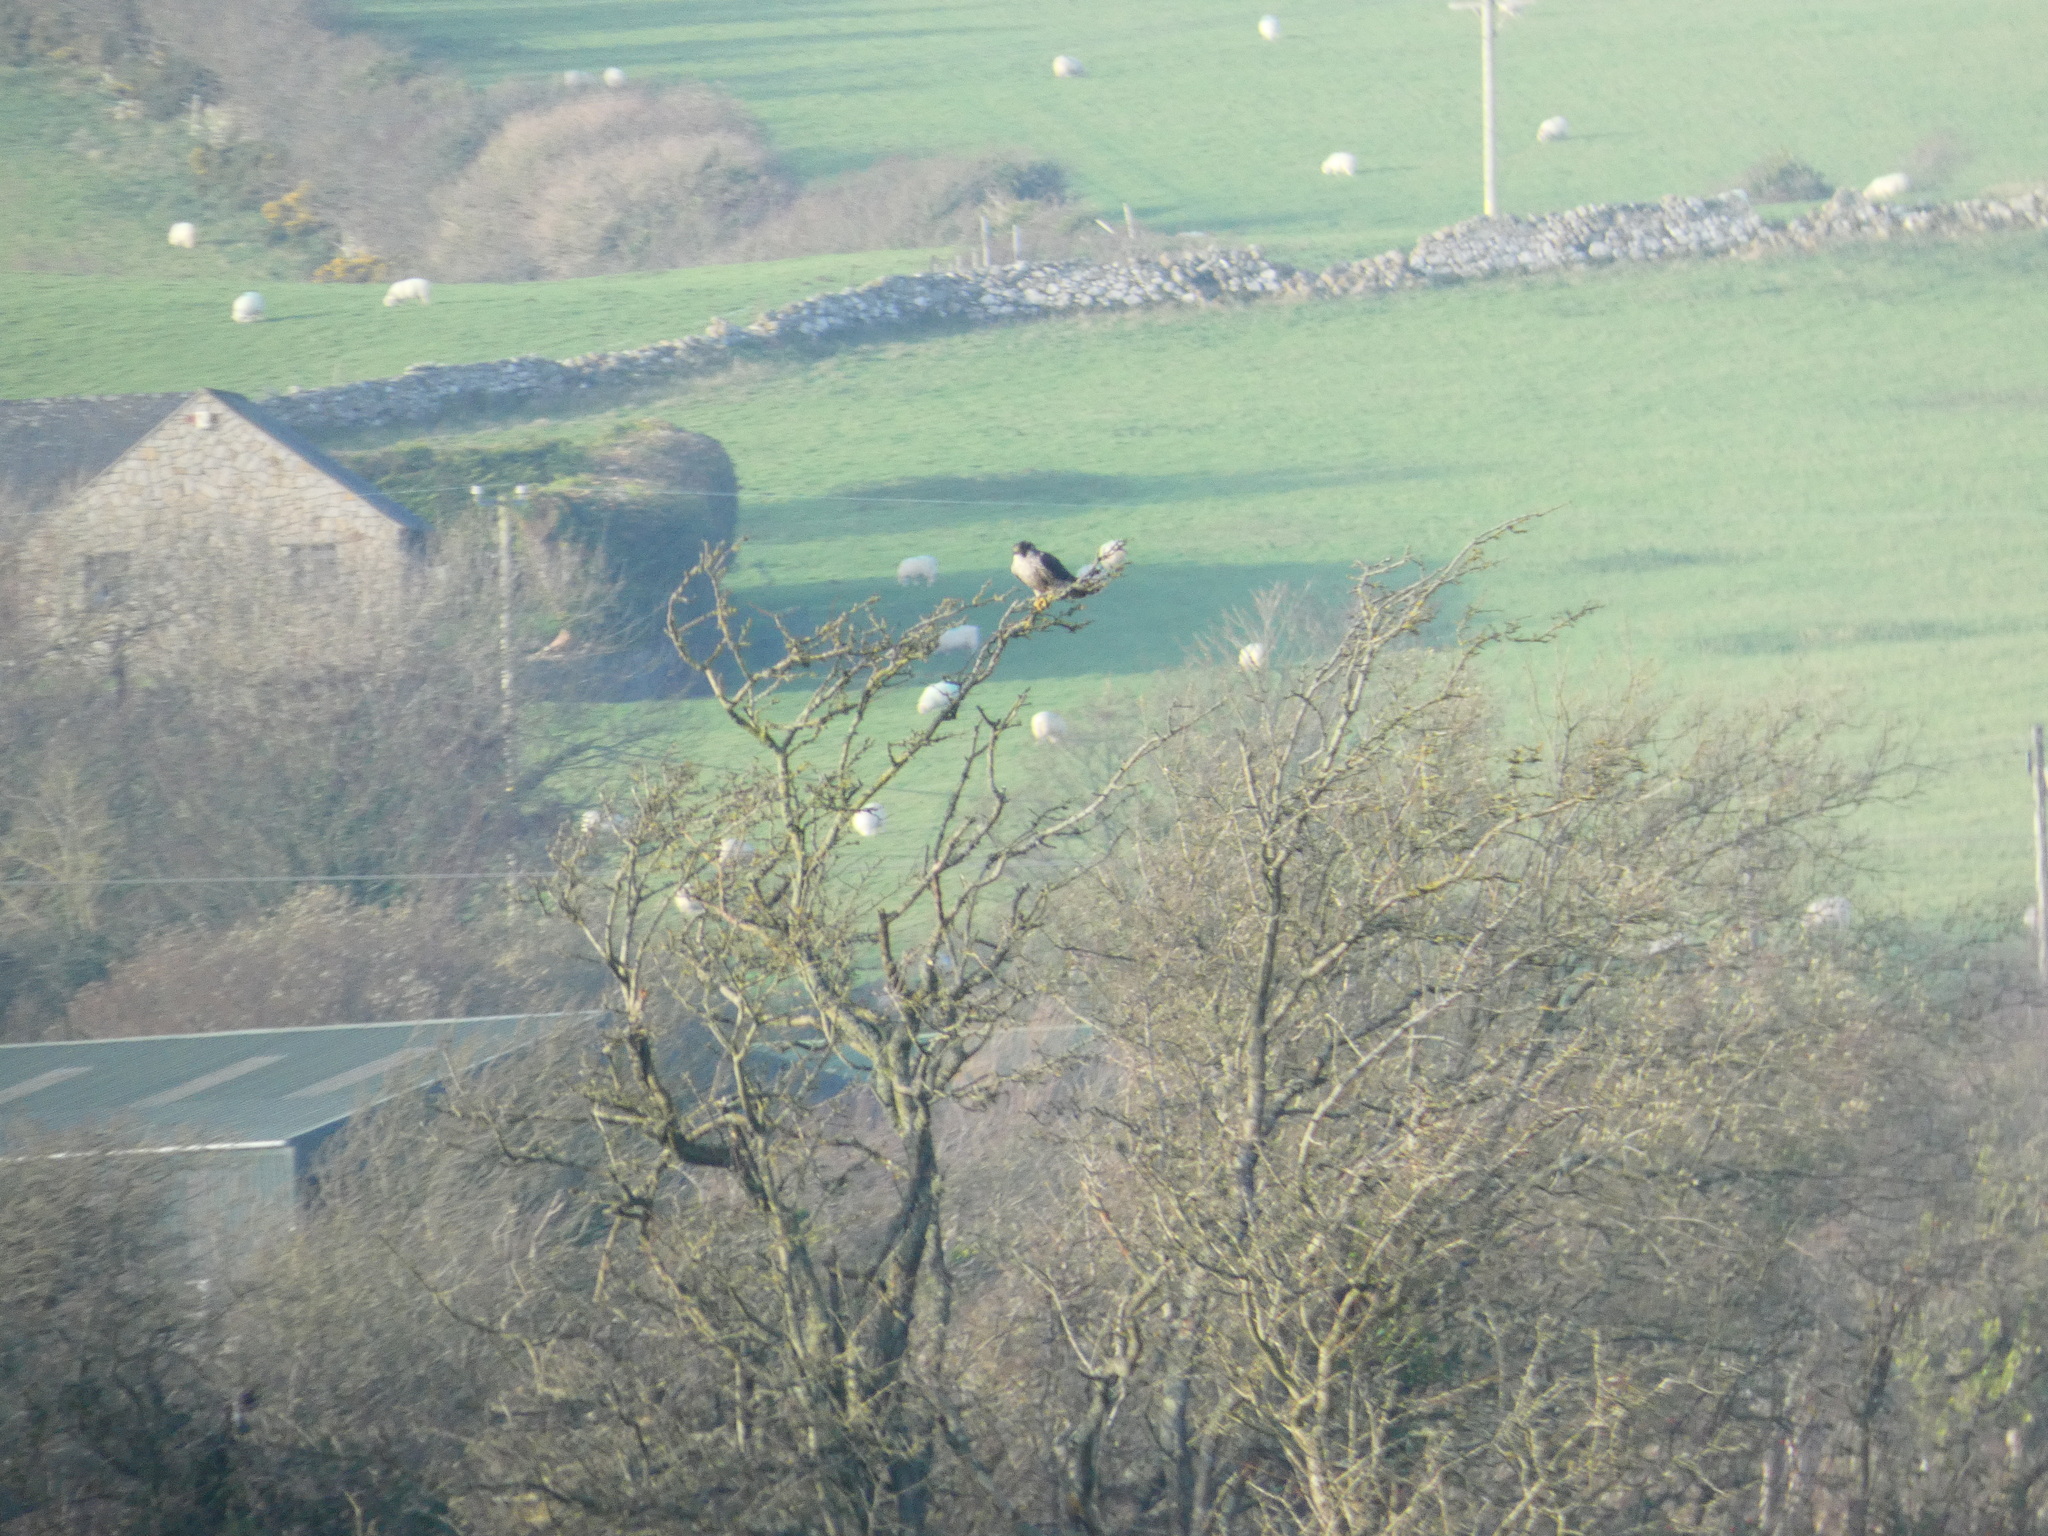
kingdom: Animalia
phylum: Chordata
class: Aves
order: Falconiformes
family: Falconidae
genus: Falco
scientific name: Falco peregrinus
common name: Peregrine falcon
